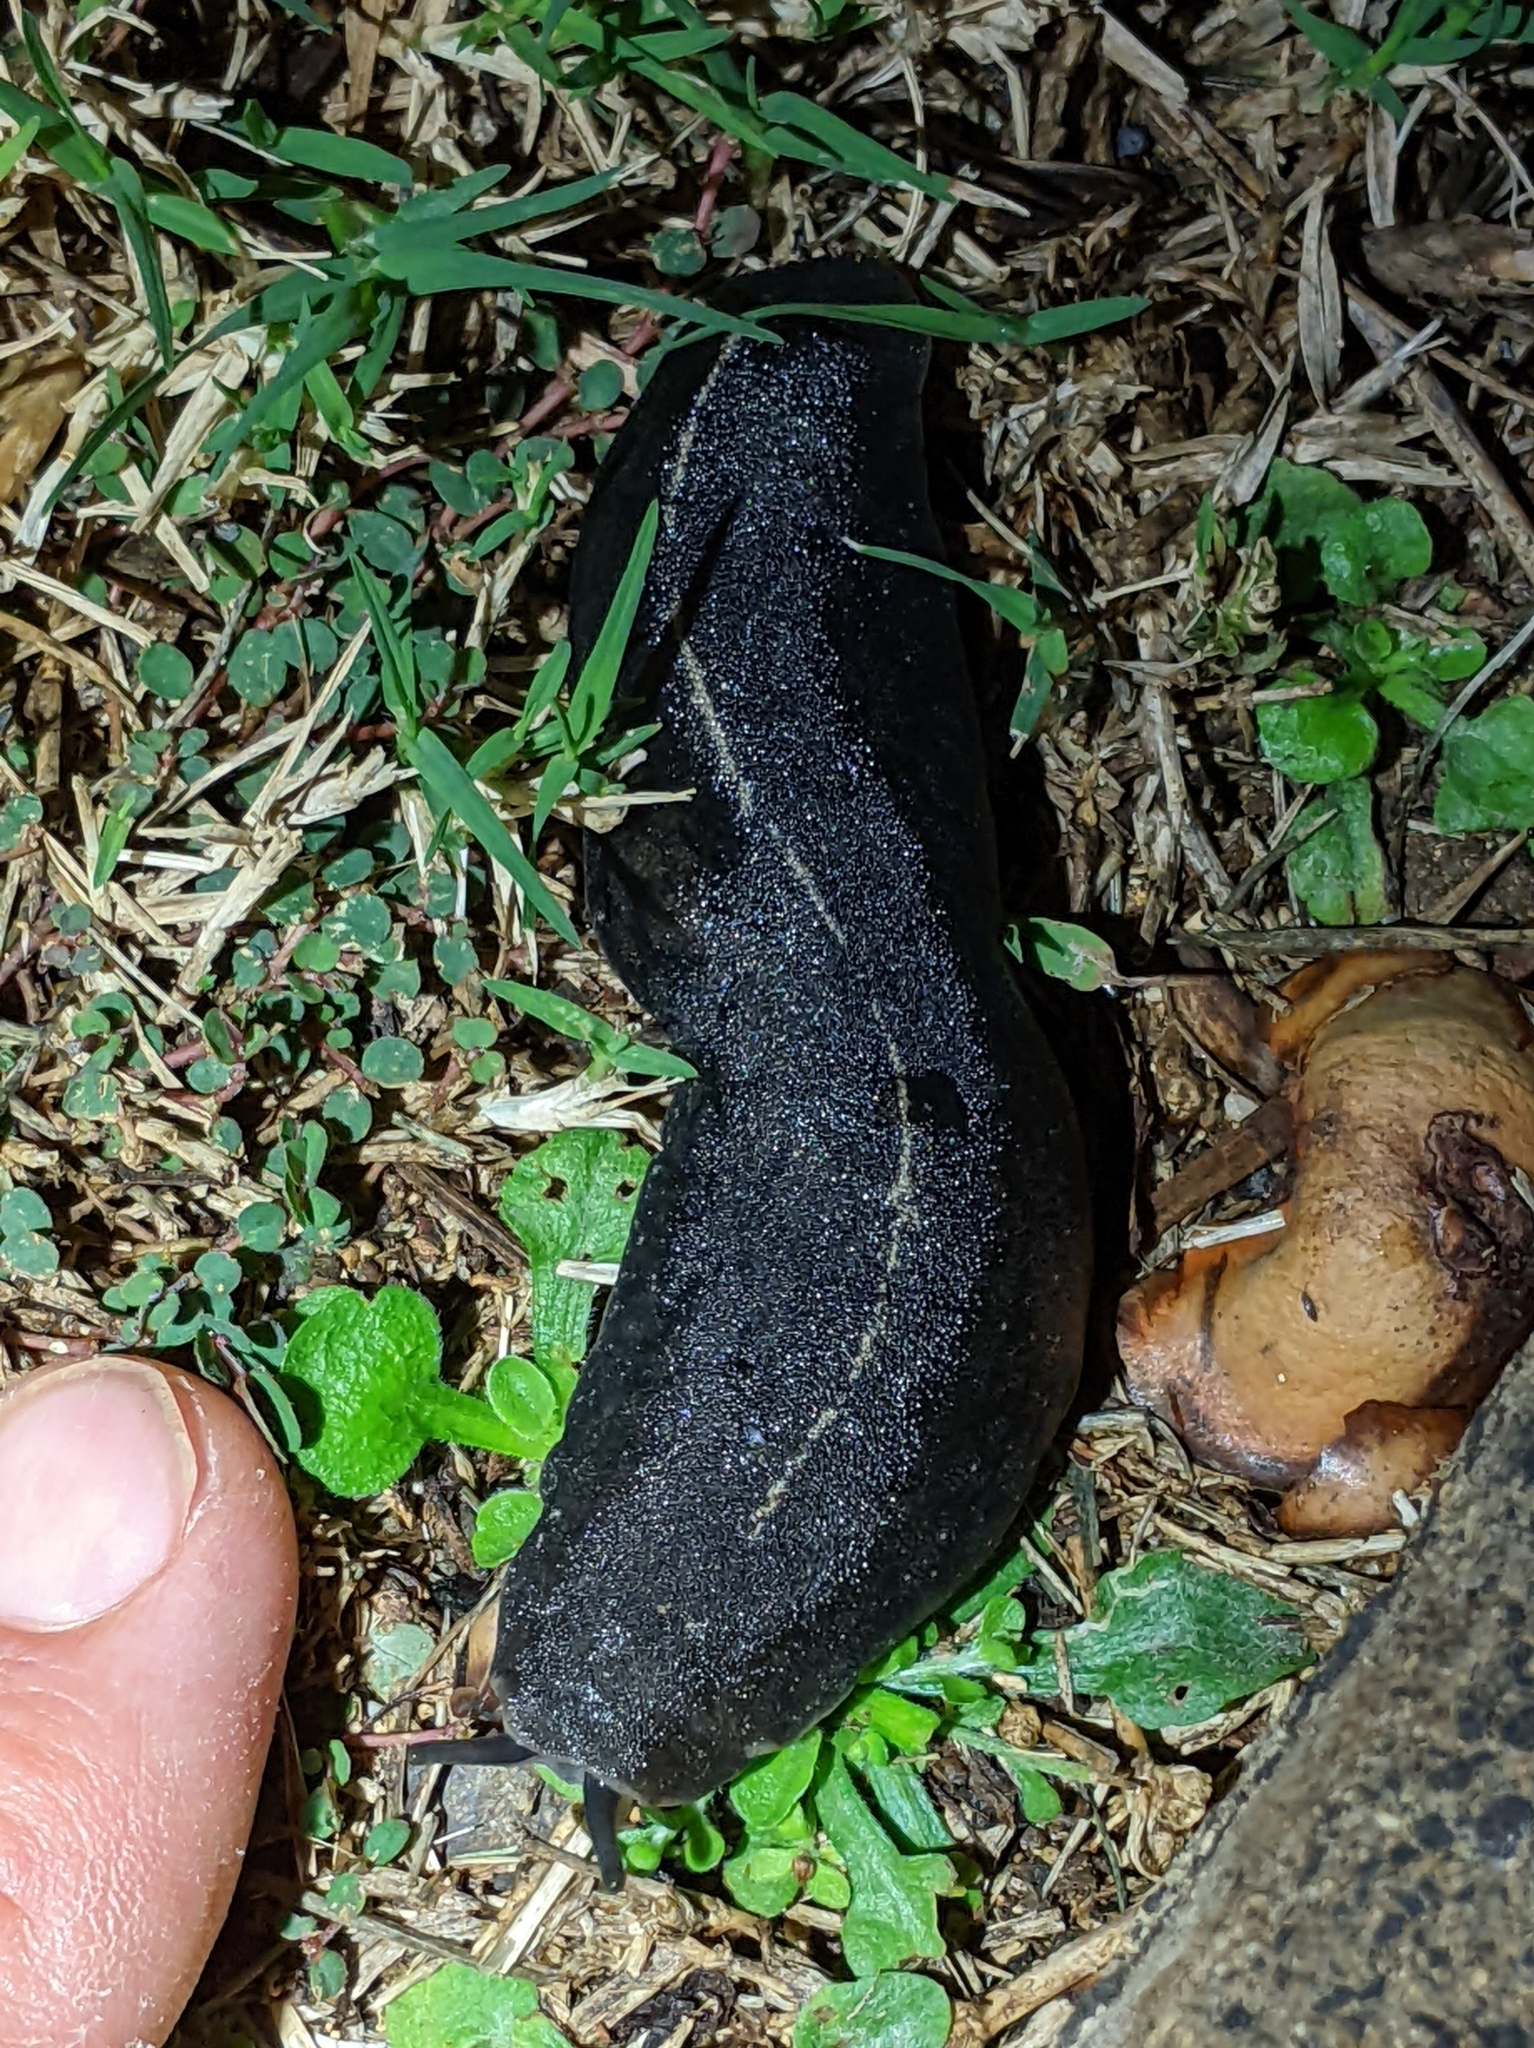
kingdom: Animalia
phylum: Mollusca
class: Gastropoda
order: Systellommatophora
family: Veronicellidae
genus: Laevicaulis
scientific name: Laevicaulis alte
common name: Tropical leatherleaf
